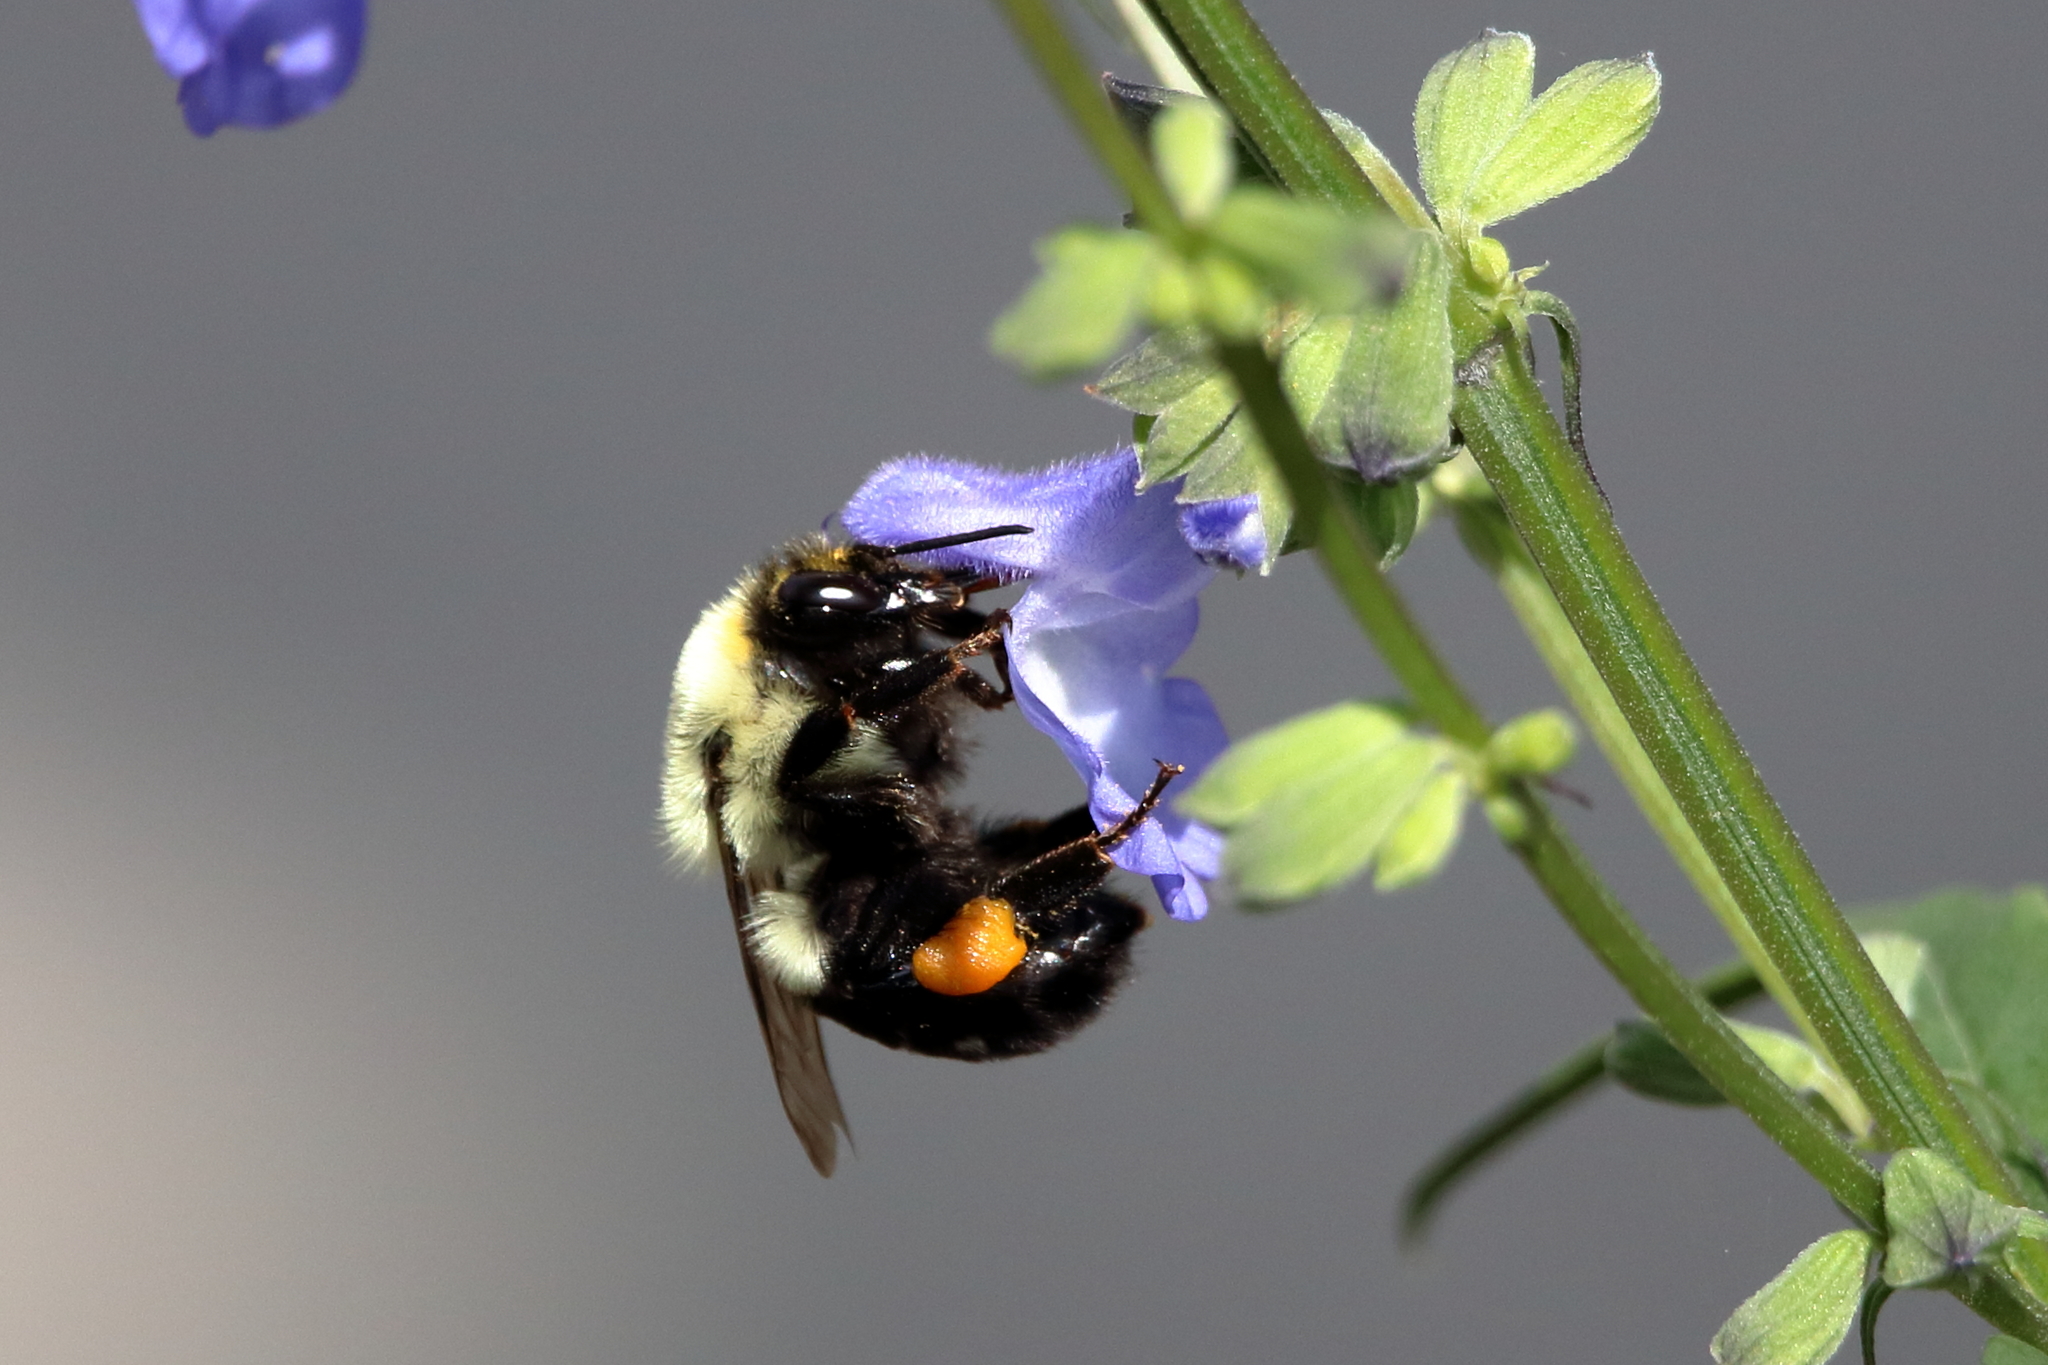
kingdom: Animalia
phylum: Arthropoda
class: Insecta
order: Hymenoptera
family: Apidae
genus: Bombus
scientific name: Bombus impatiens
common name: Common eastern bumble bee
